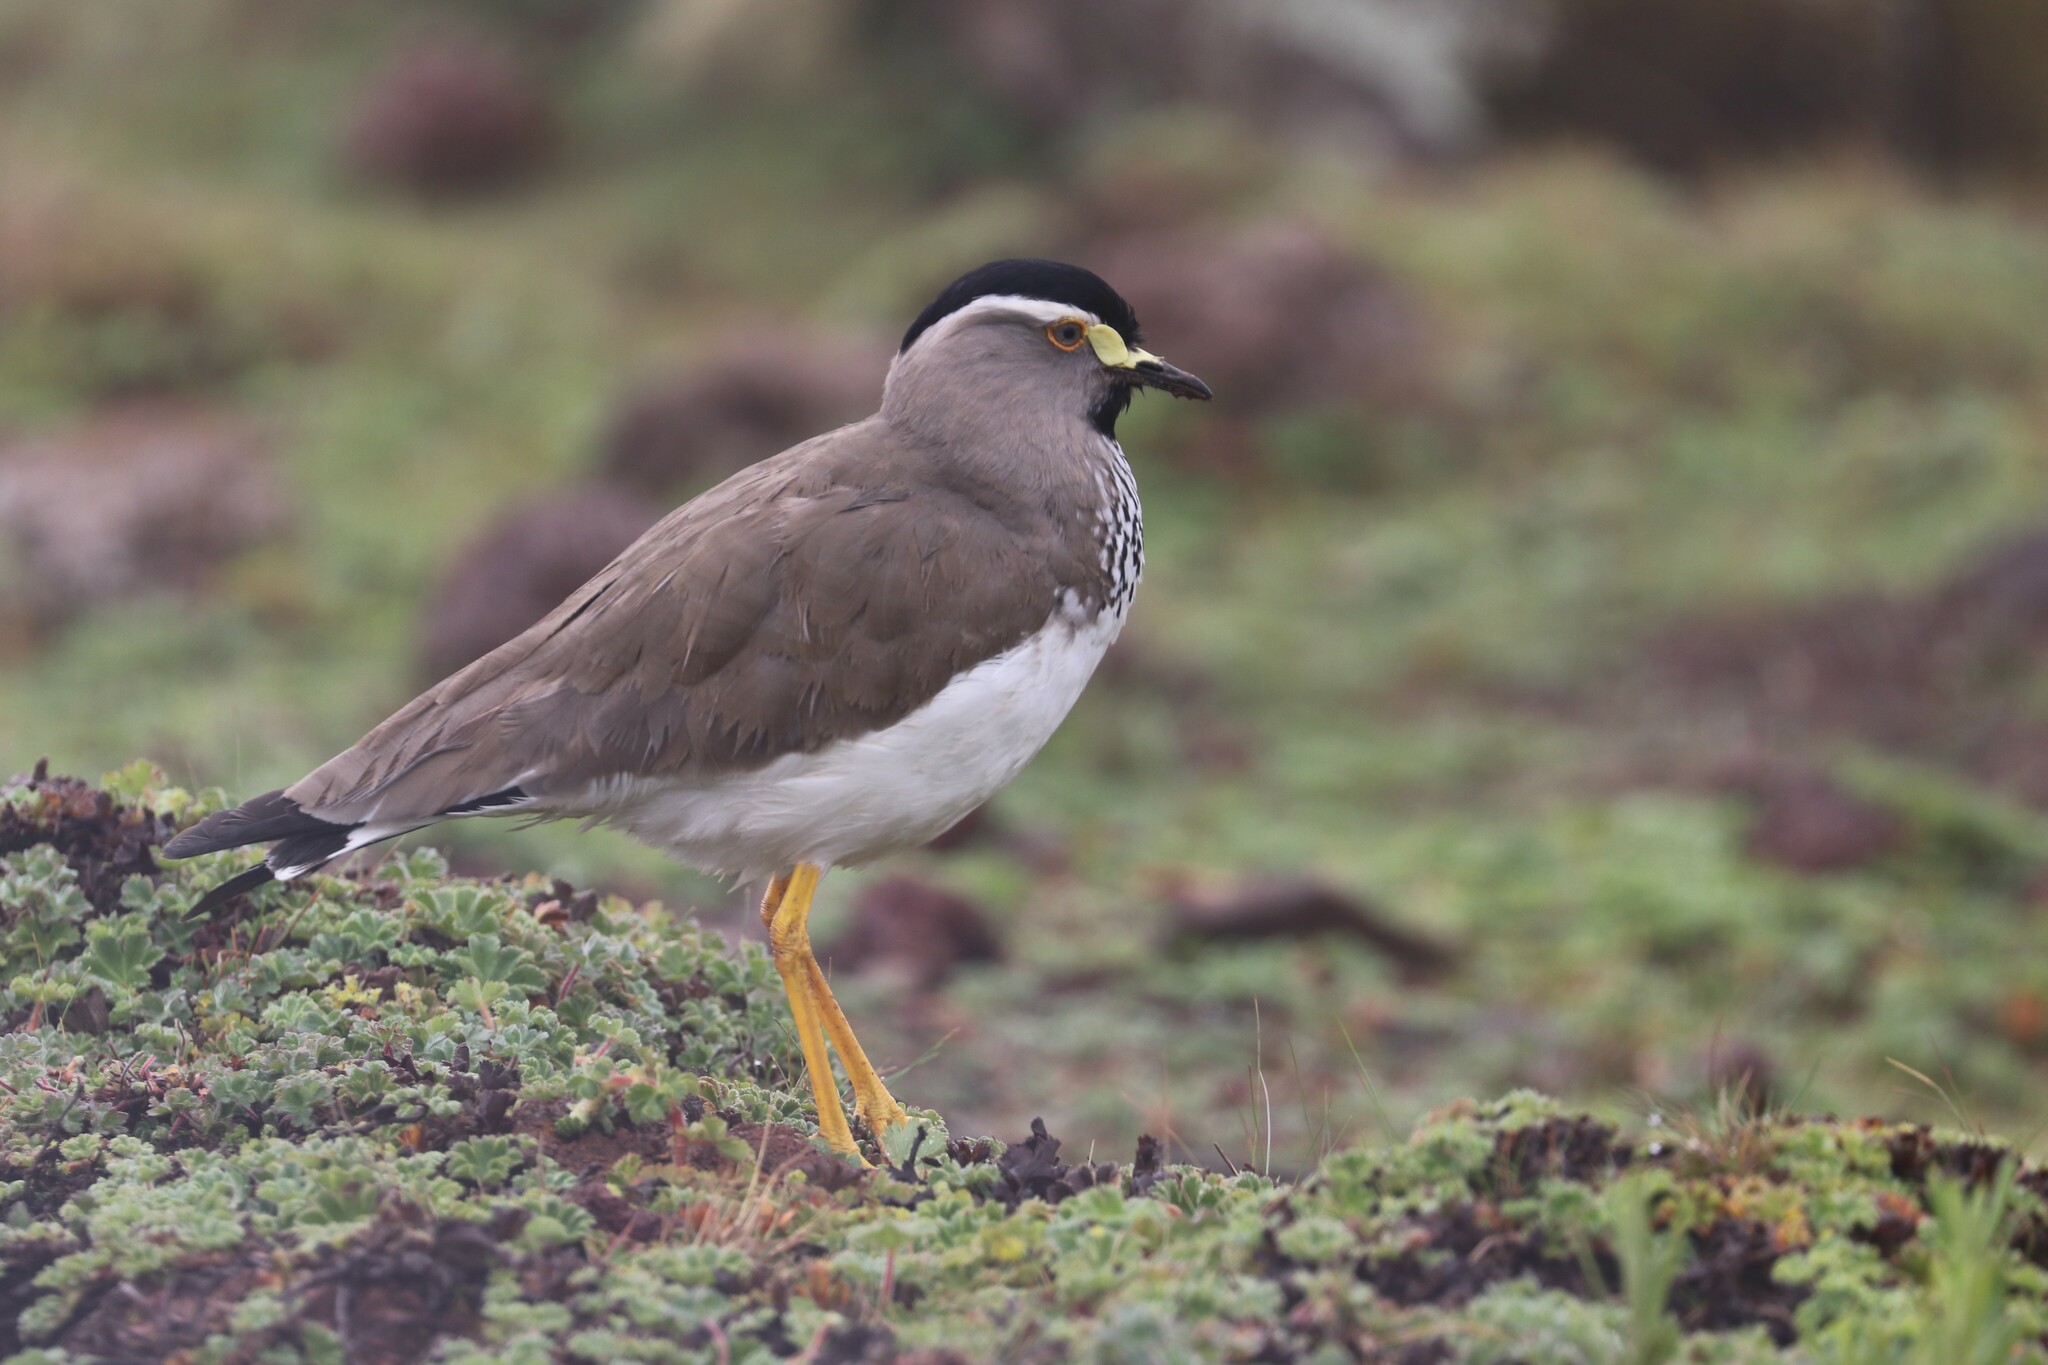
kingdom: Animalia
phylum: Chordata
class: Aves
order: Charadriiformes
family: Charadriidae
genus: Vanellus
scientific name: Vanellus melanocephalus
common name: Spot-breasted lapwing
